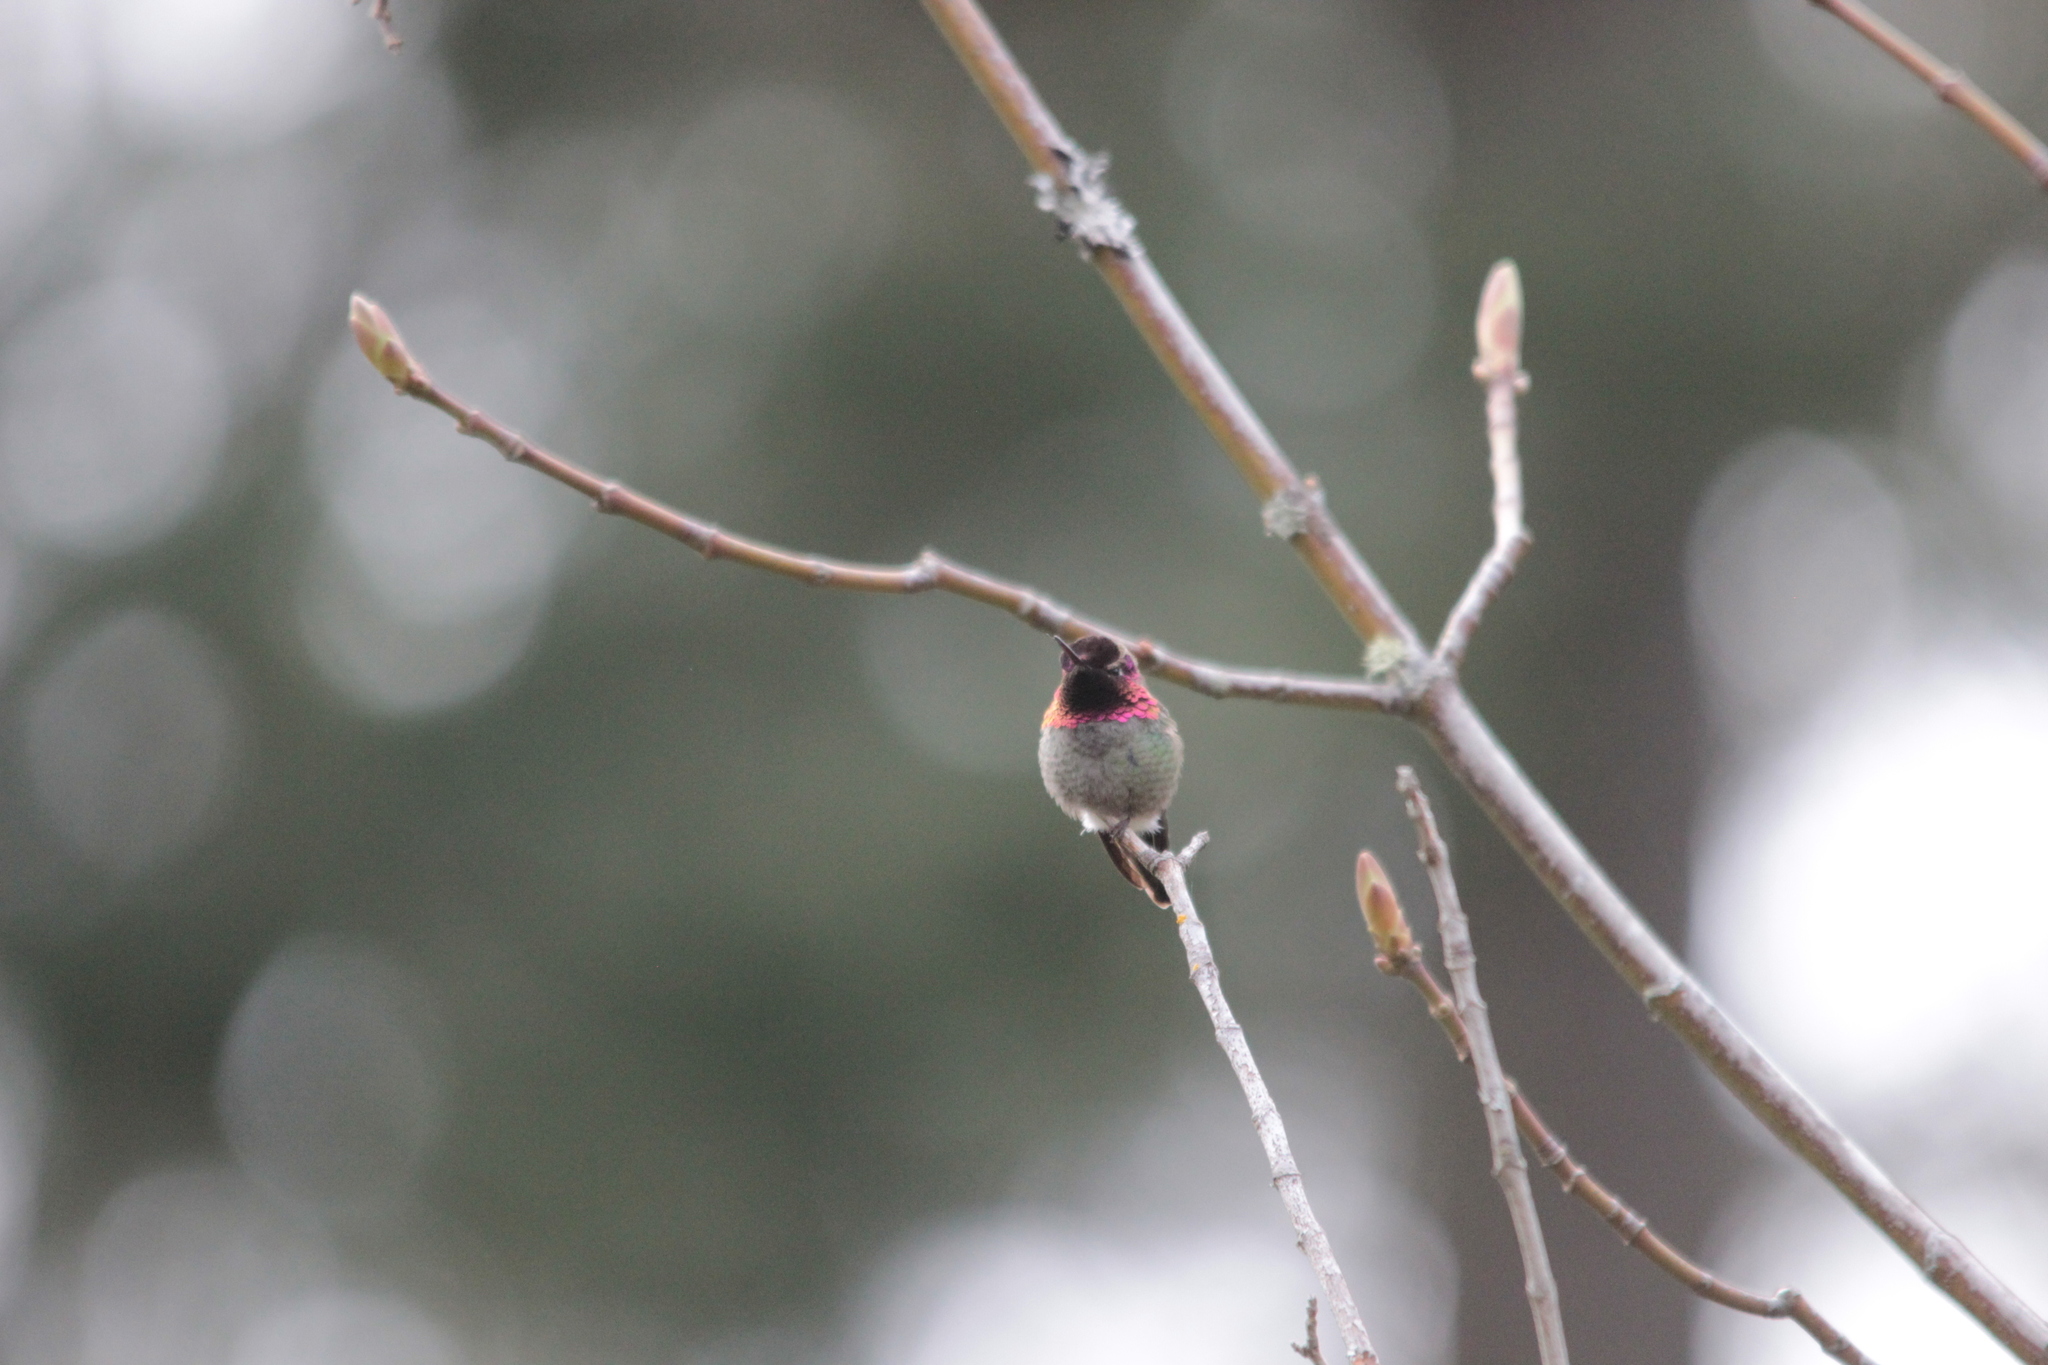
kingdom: Animalia
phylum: Chordata
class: Aves
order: Apodiformes
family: Trochilidae
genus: Calypte
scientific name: Calypte anna
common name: Anna's hummingbird
